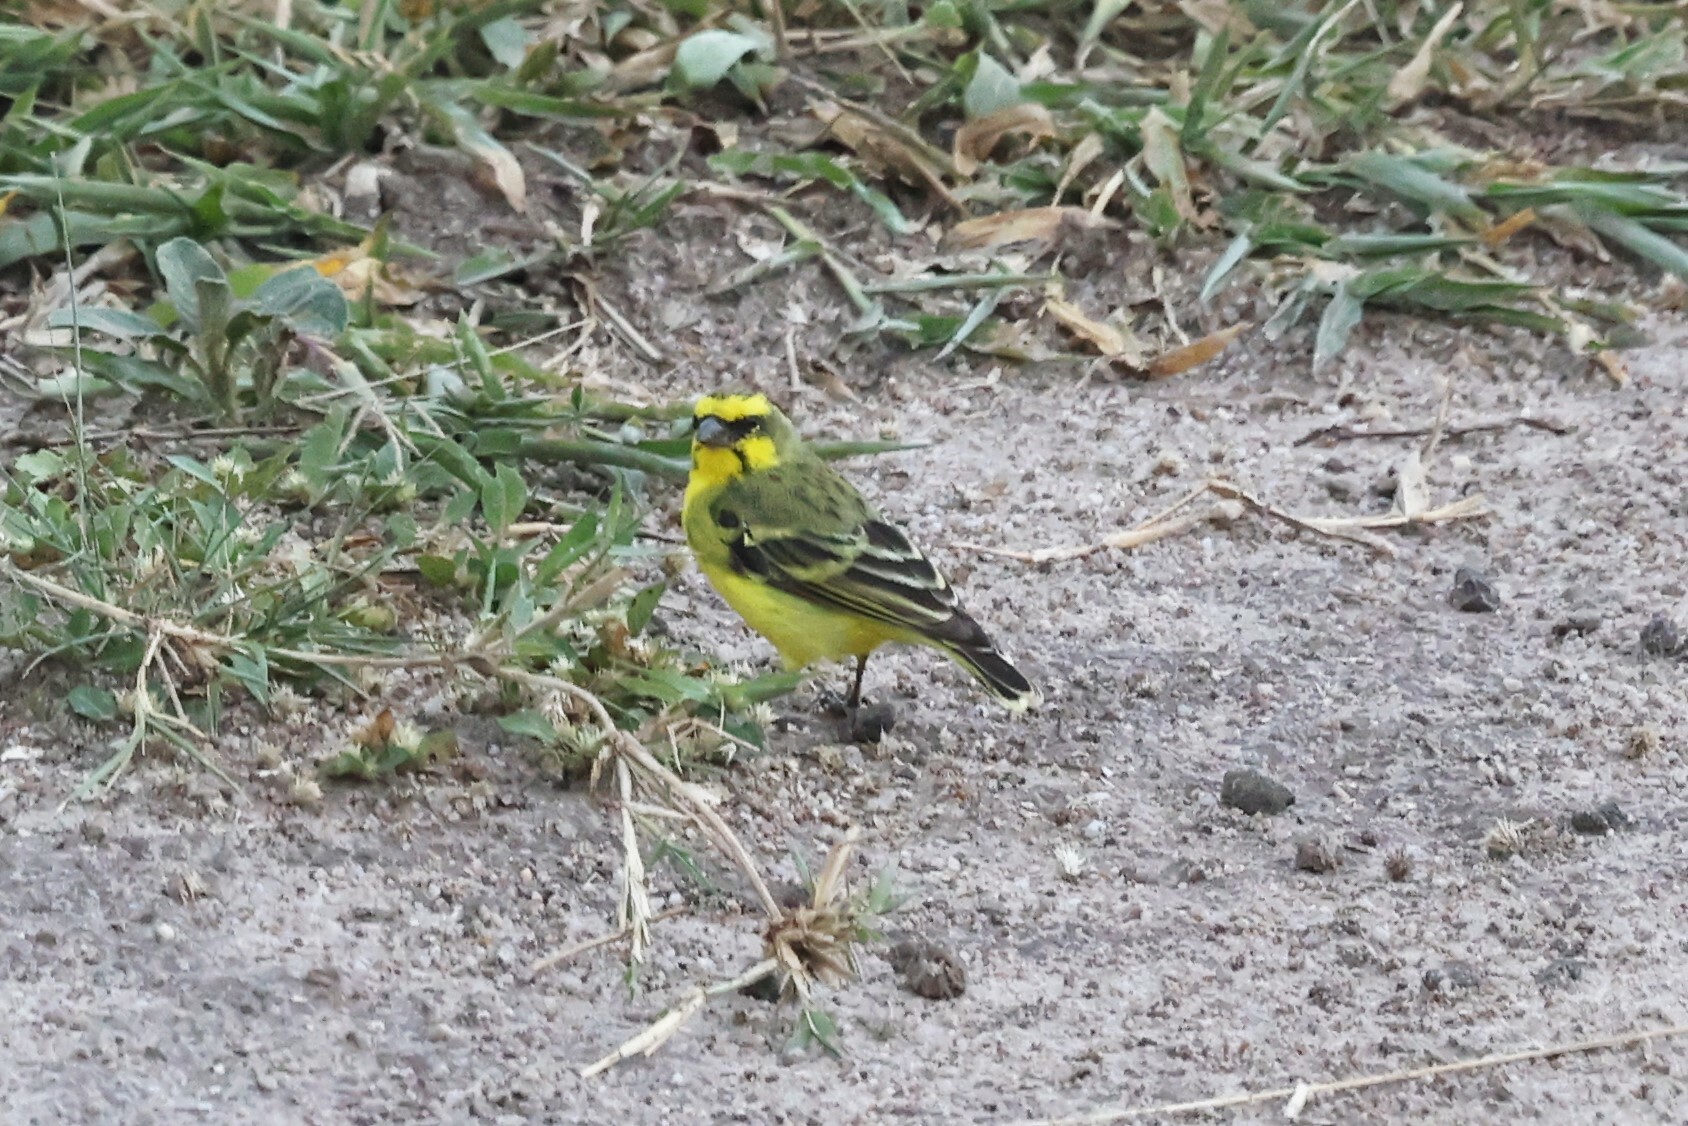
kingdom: Animalia
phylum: Chordata
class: Aves
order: Passeriformes
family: Fringillidae
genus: Crithagra
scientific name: Crithagra mozambica
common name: Yellow-fronted canary
